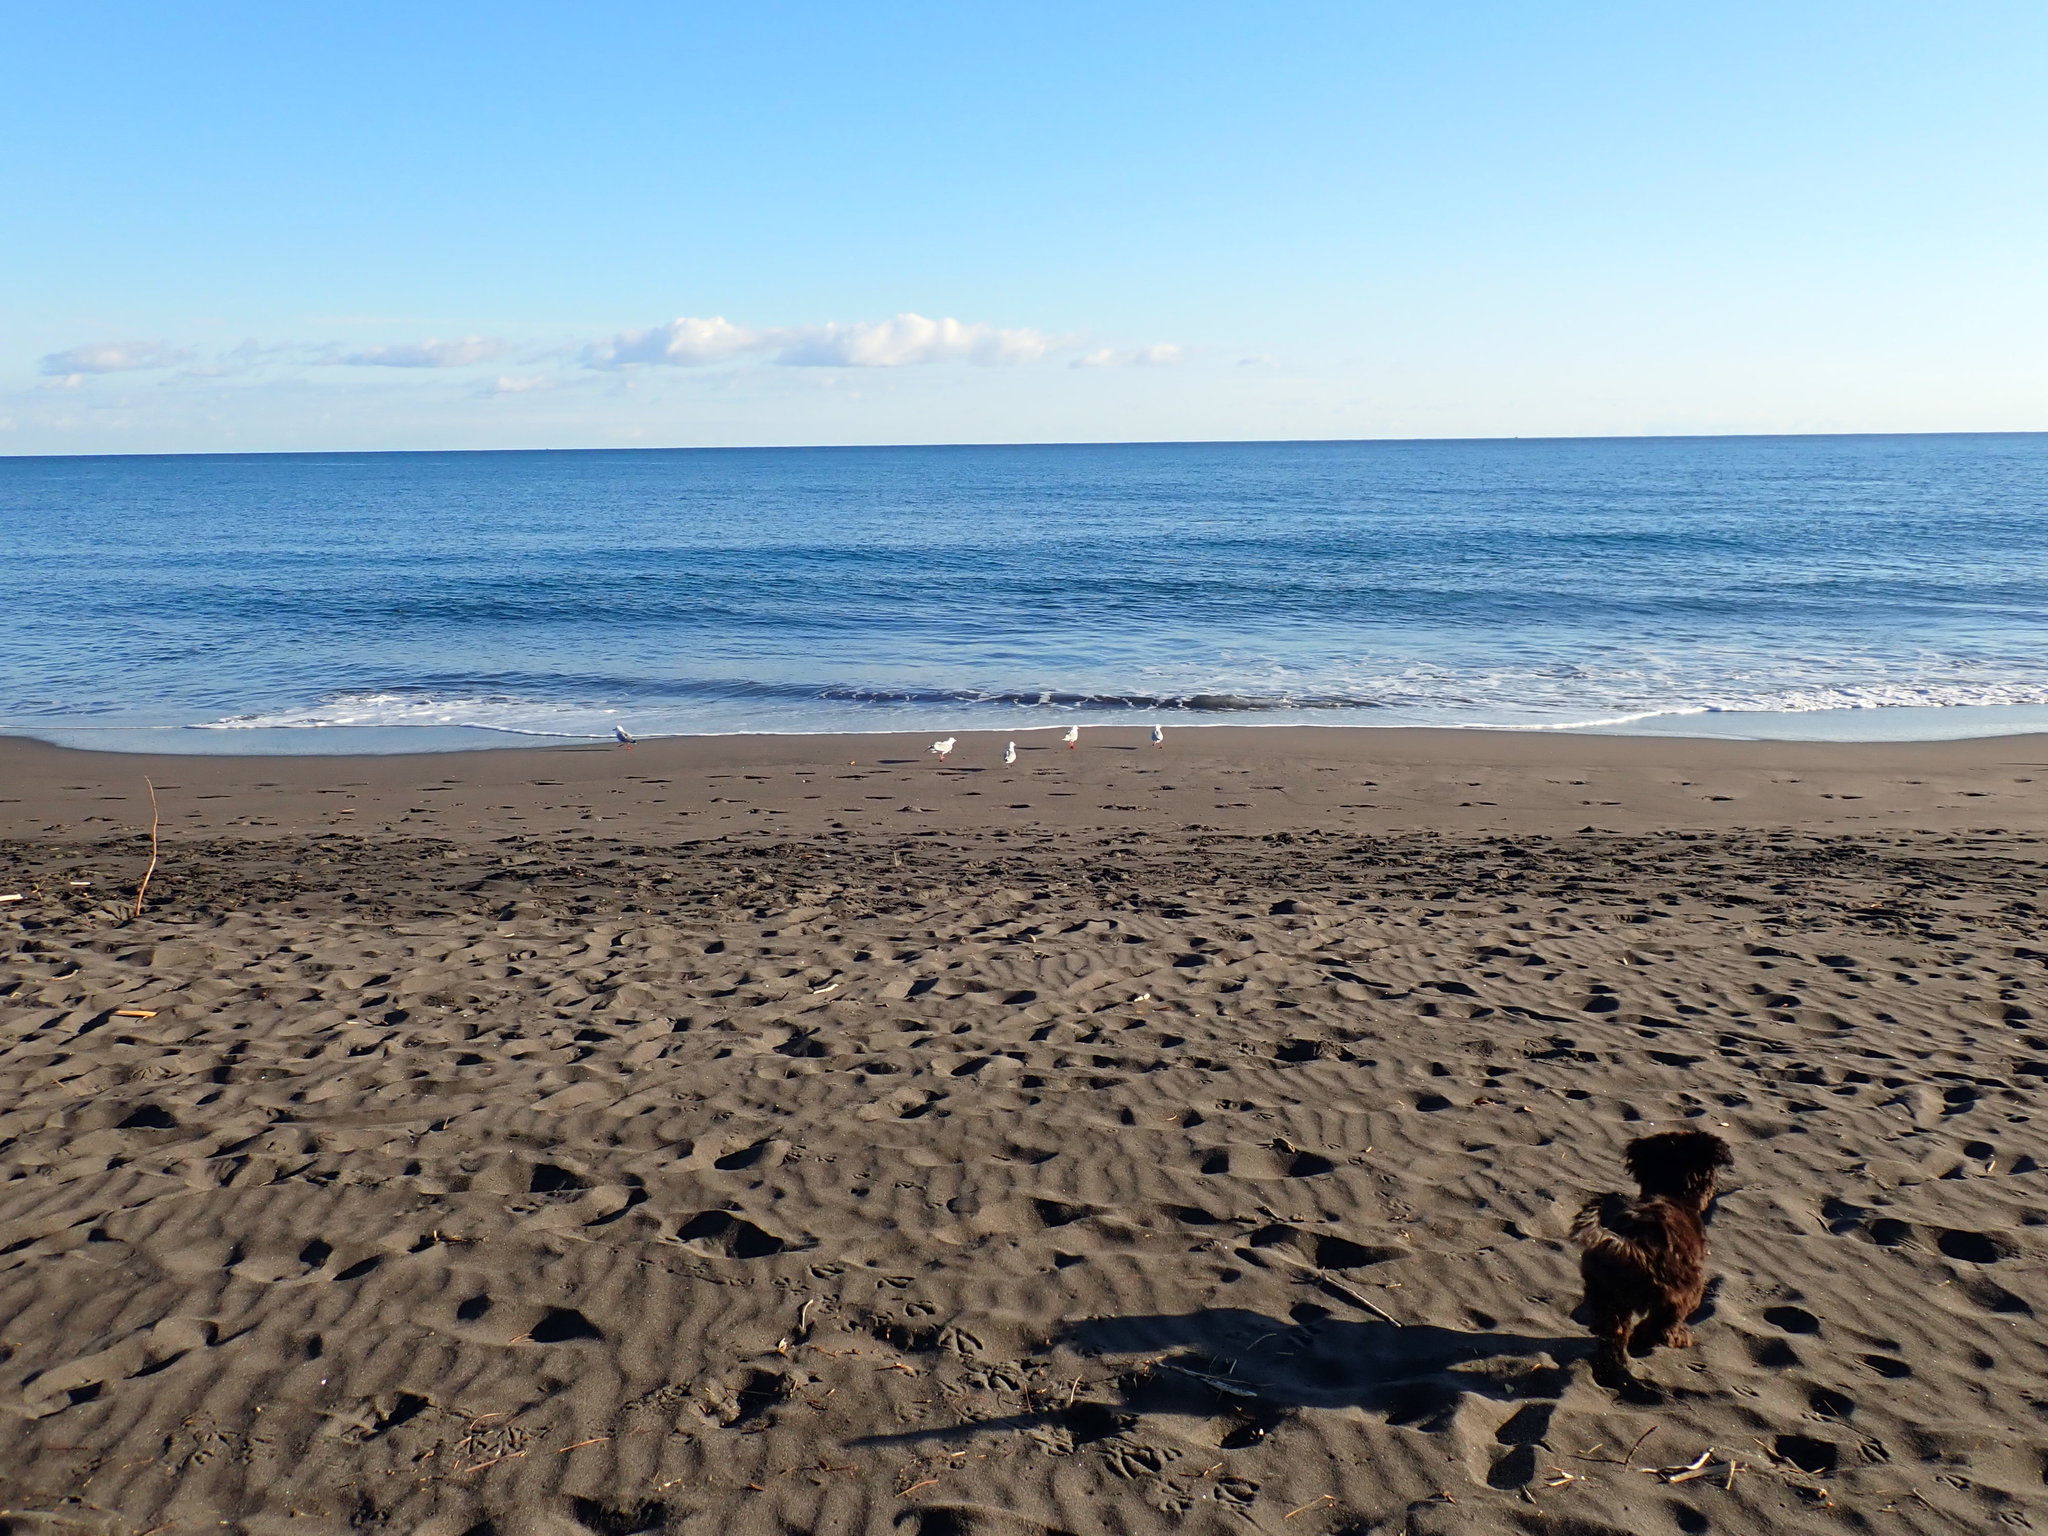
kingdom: Animalia
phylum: Chordata
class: Aves
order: Charadriiformes
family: Laridae
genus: Chroicocephalus
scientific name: Chroicocephalus novaehollandiae
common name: Silver gull
